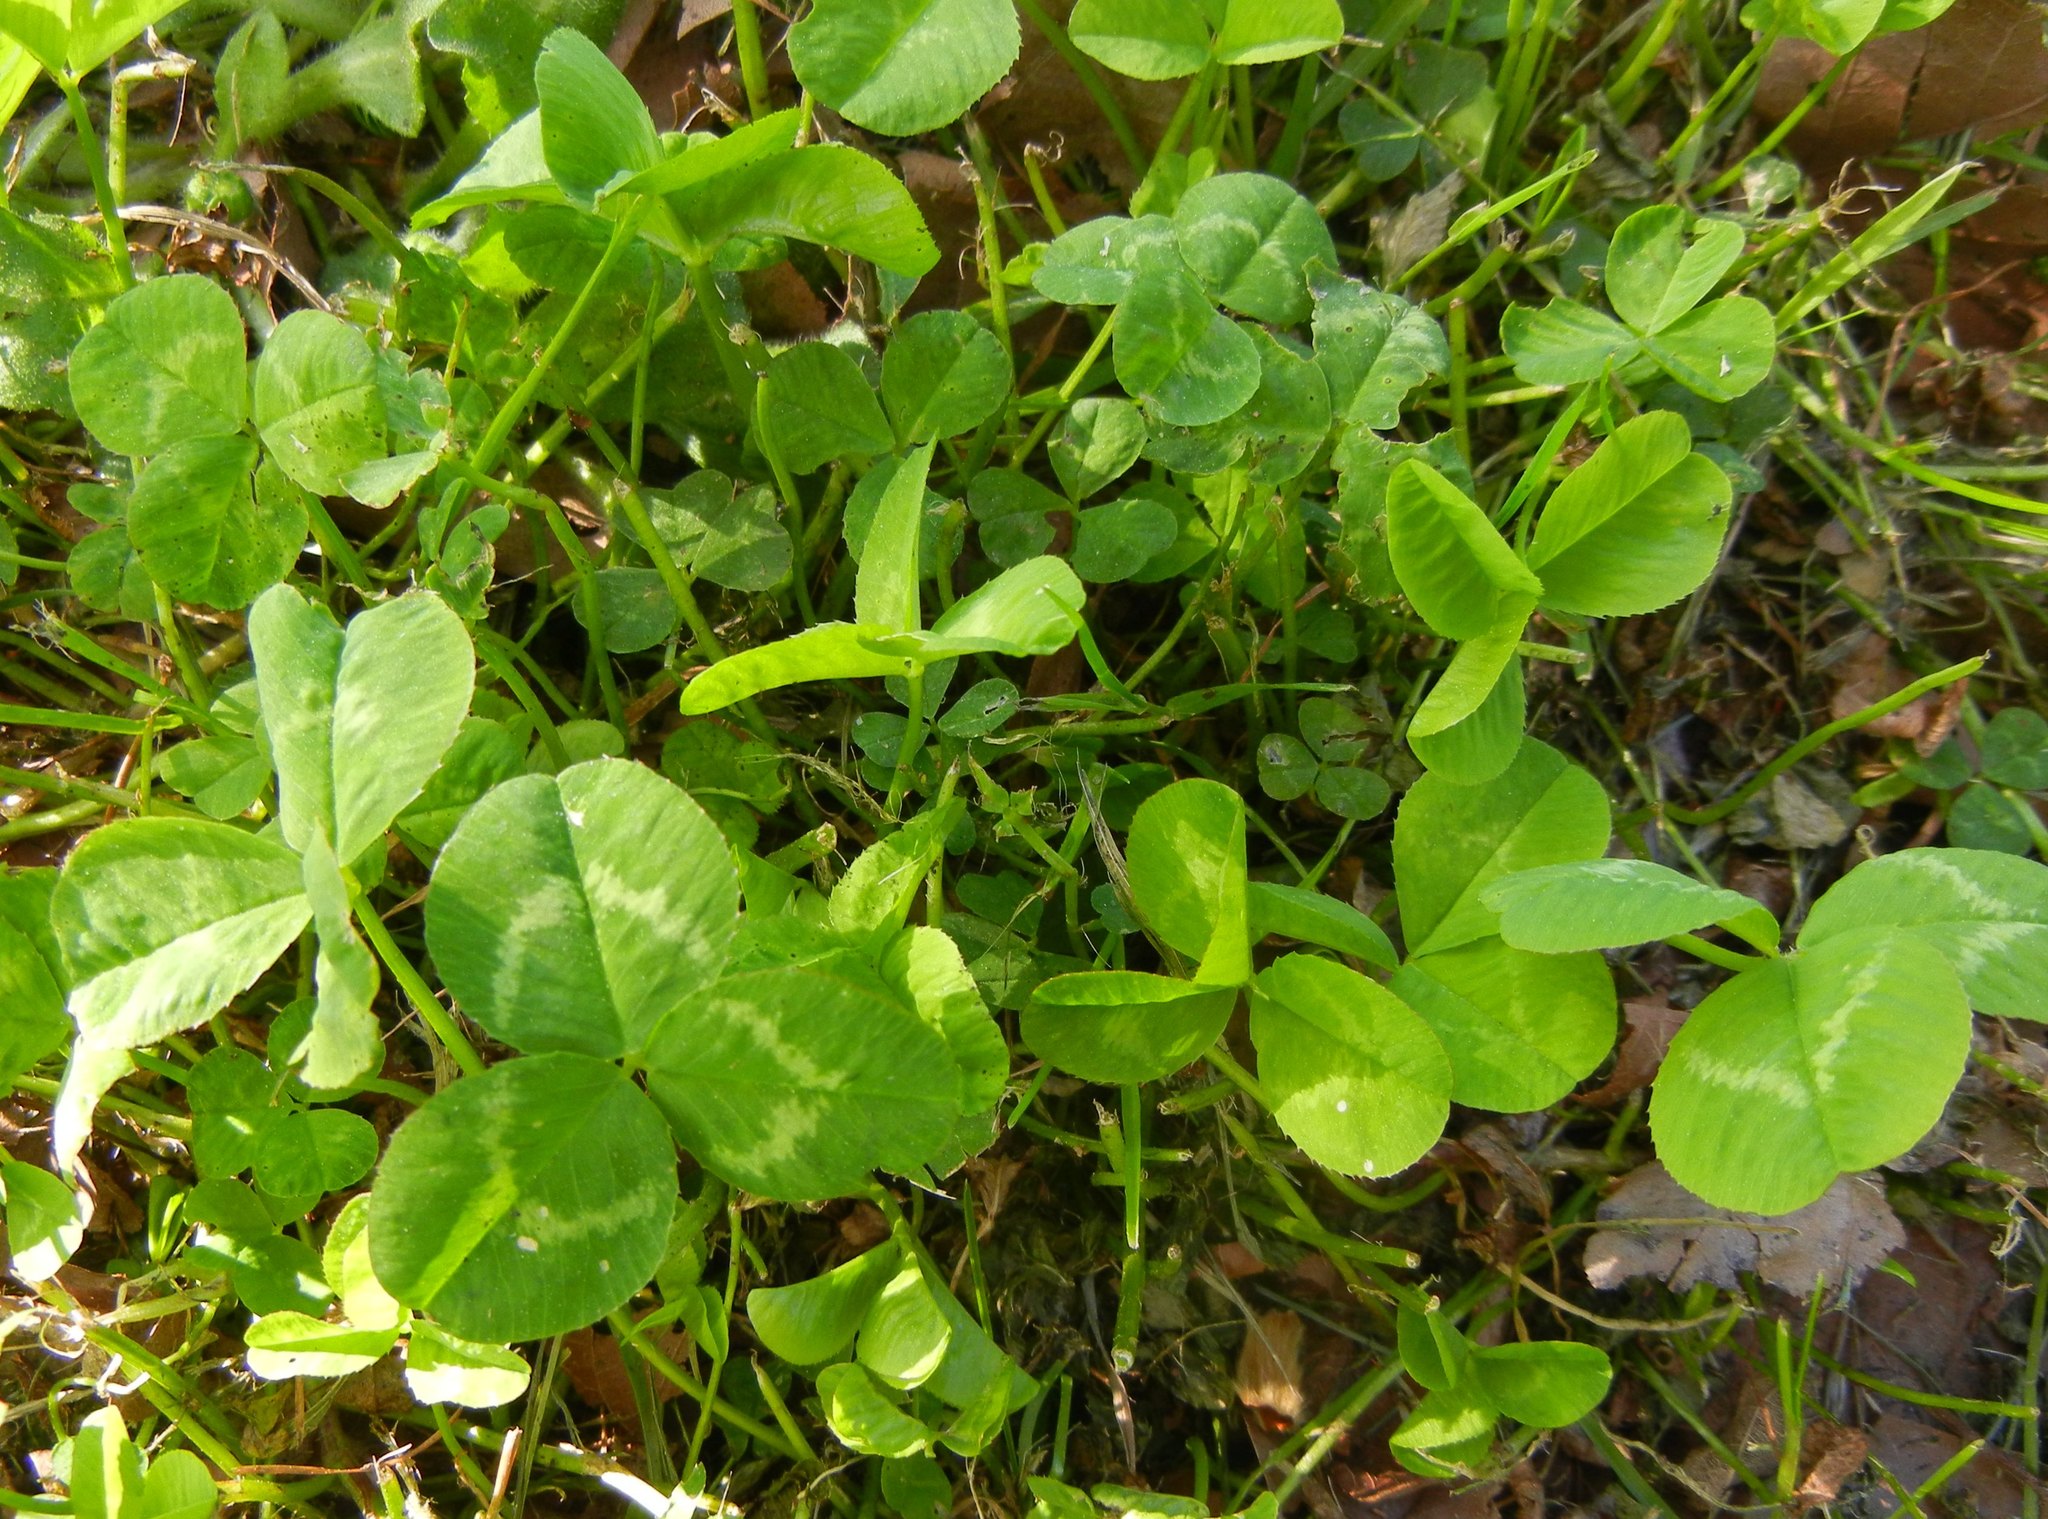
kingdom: Plantae
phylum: Tracheophyta
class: Magnoliopsida
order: Fabales
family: Fabaceae
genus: Trifolium
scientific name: Trifolium repens
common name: White clover
